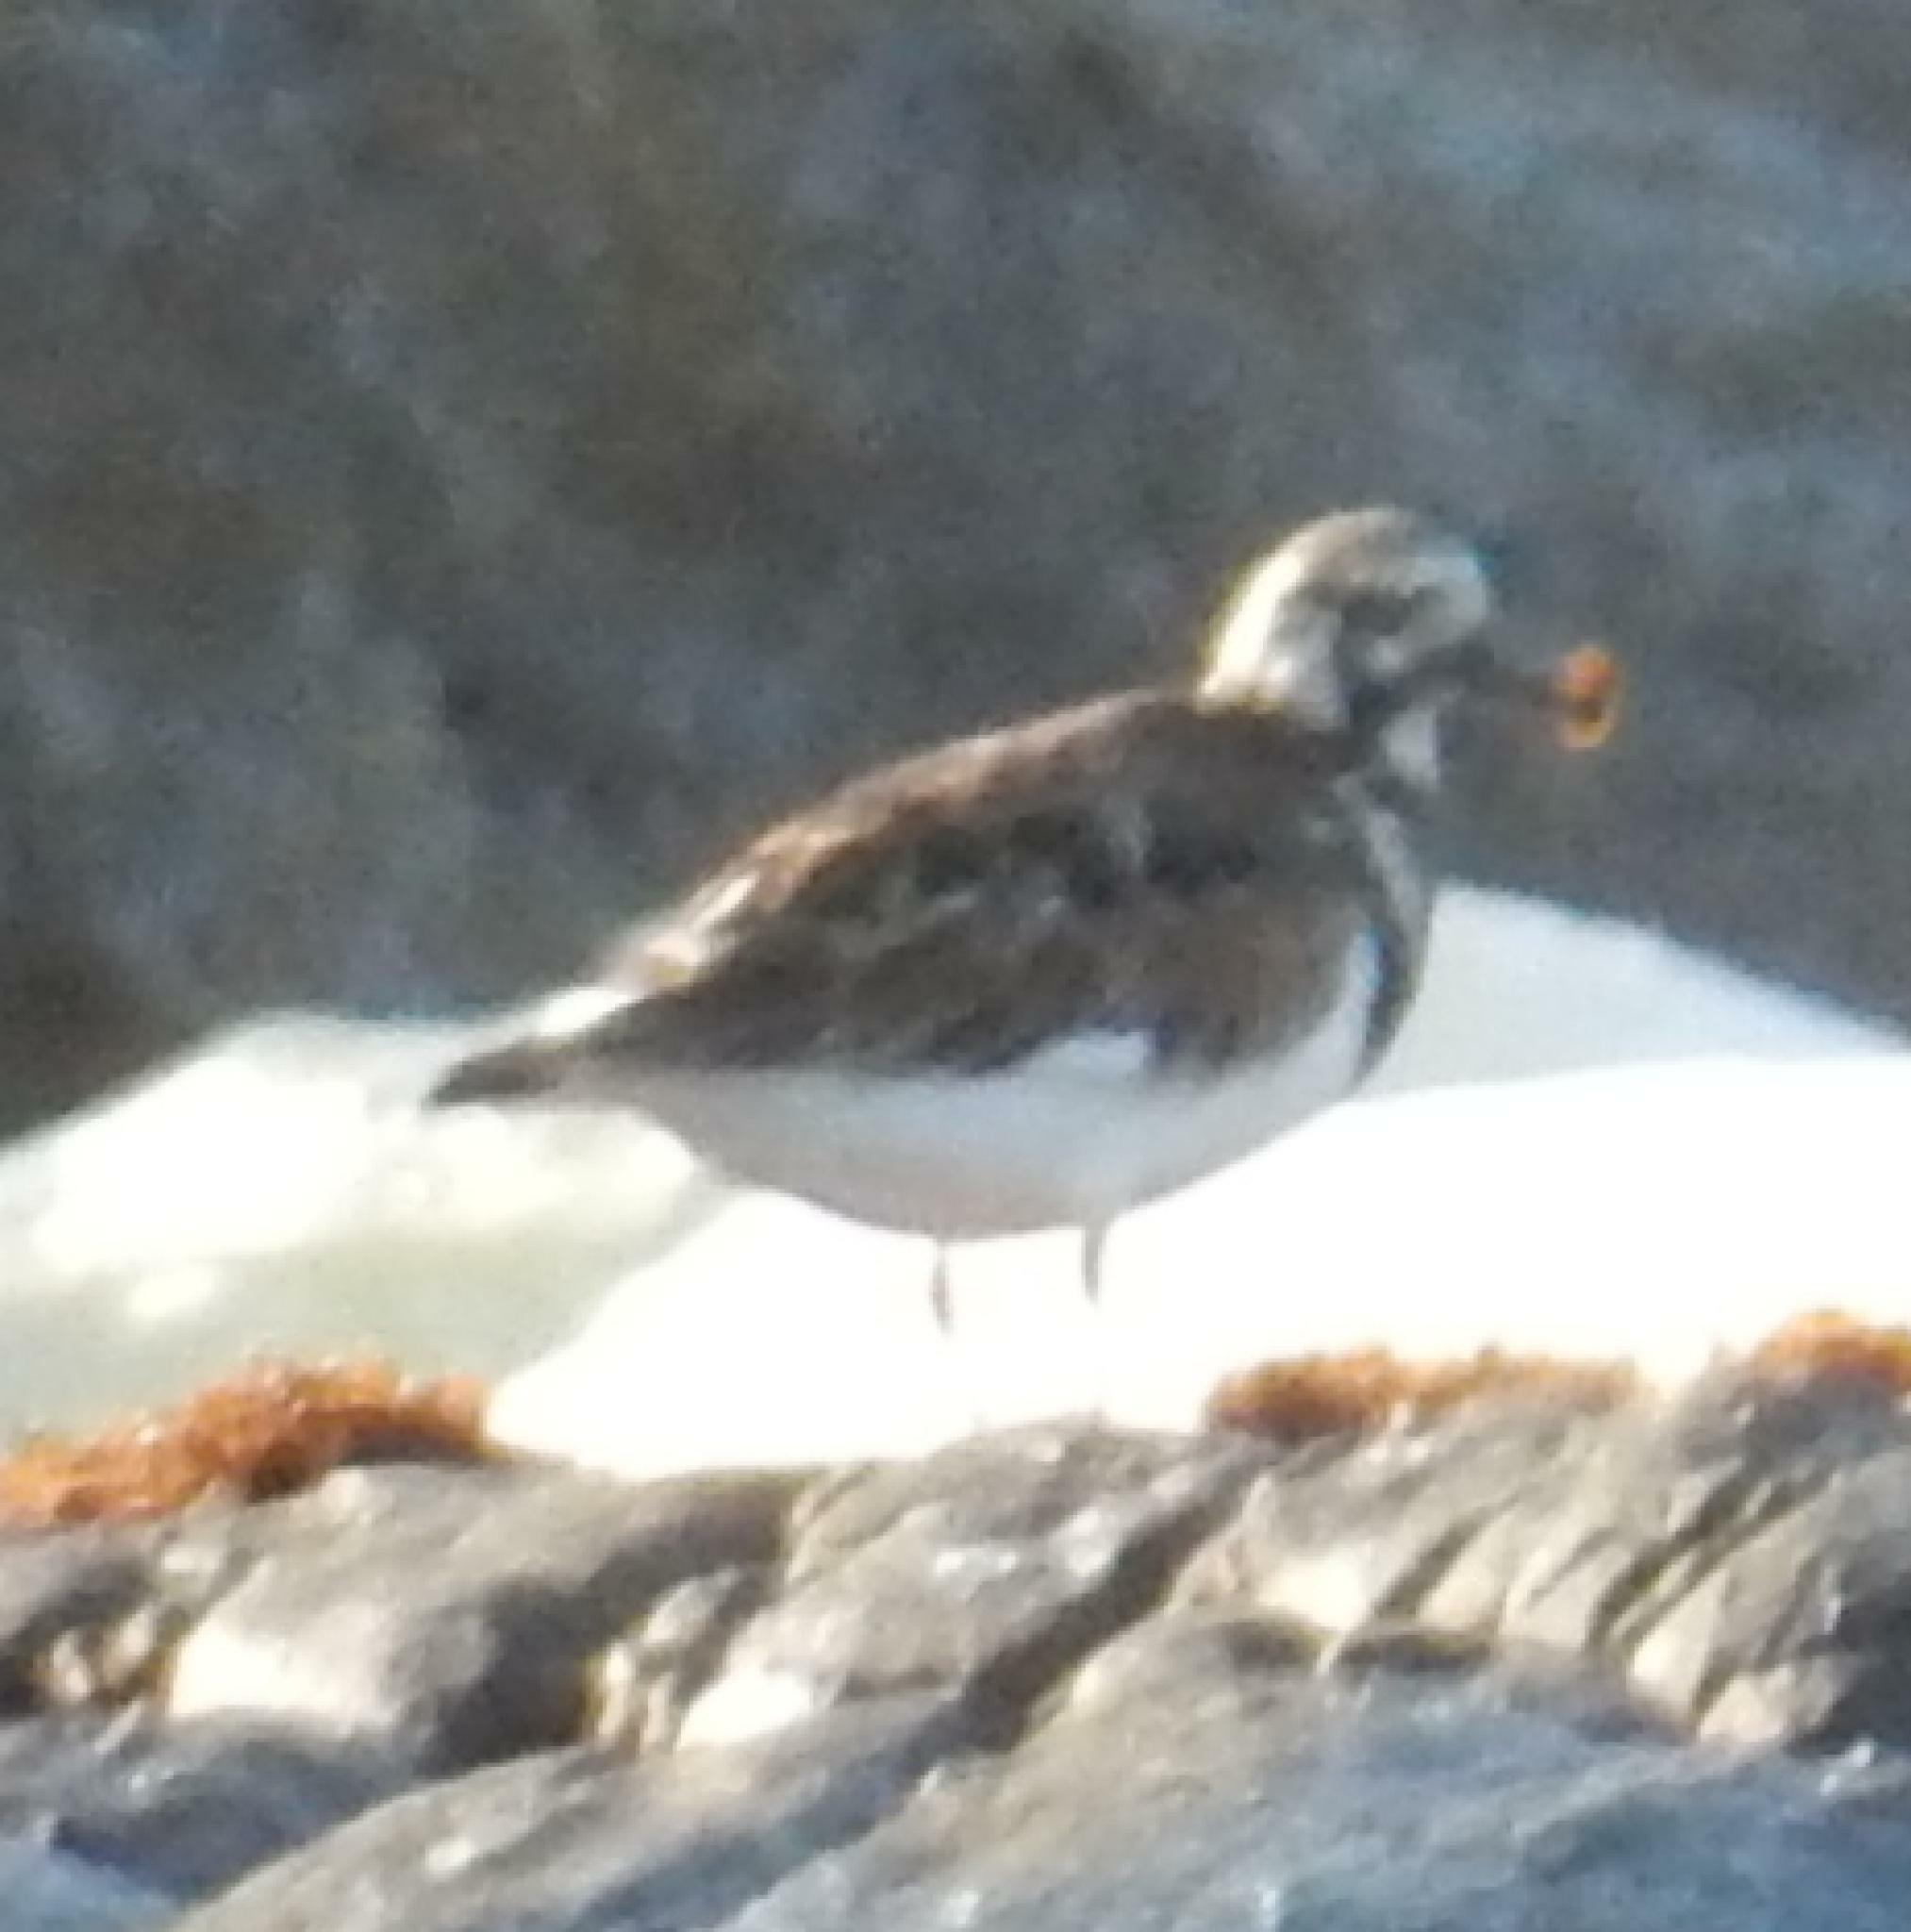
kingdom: Animalia
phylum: Chordata
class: Aves
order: Charadriiformes
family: Scolopacidae
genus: Arenaria
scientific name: Arenaria interpres
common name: Ruddy turnstone
